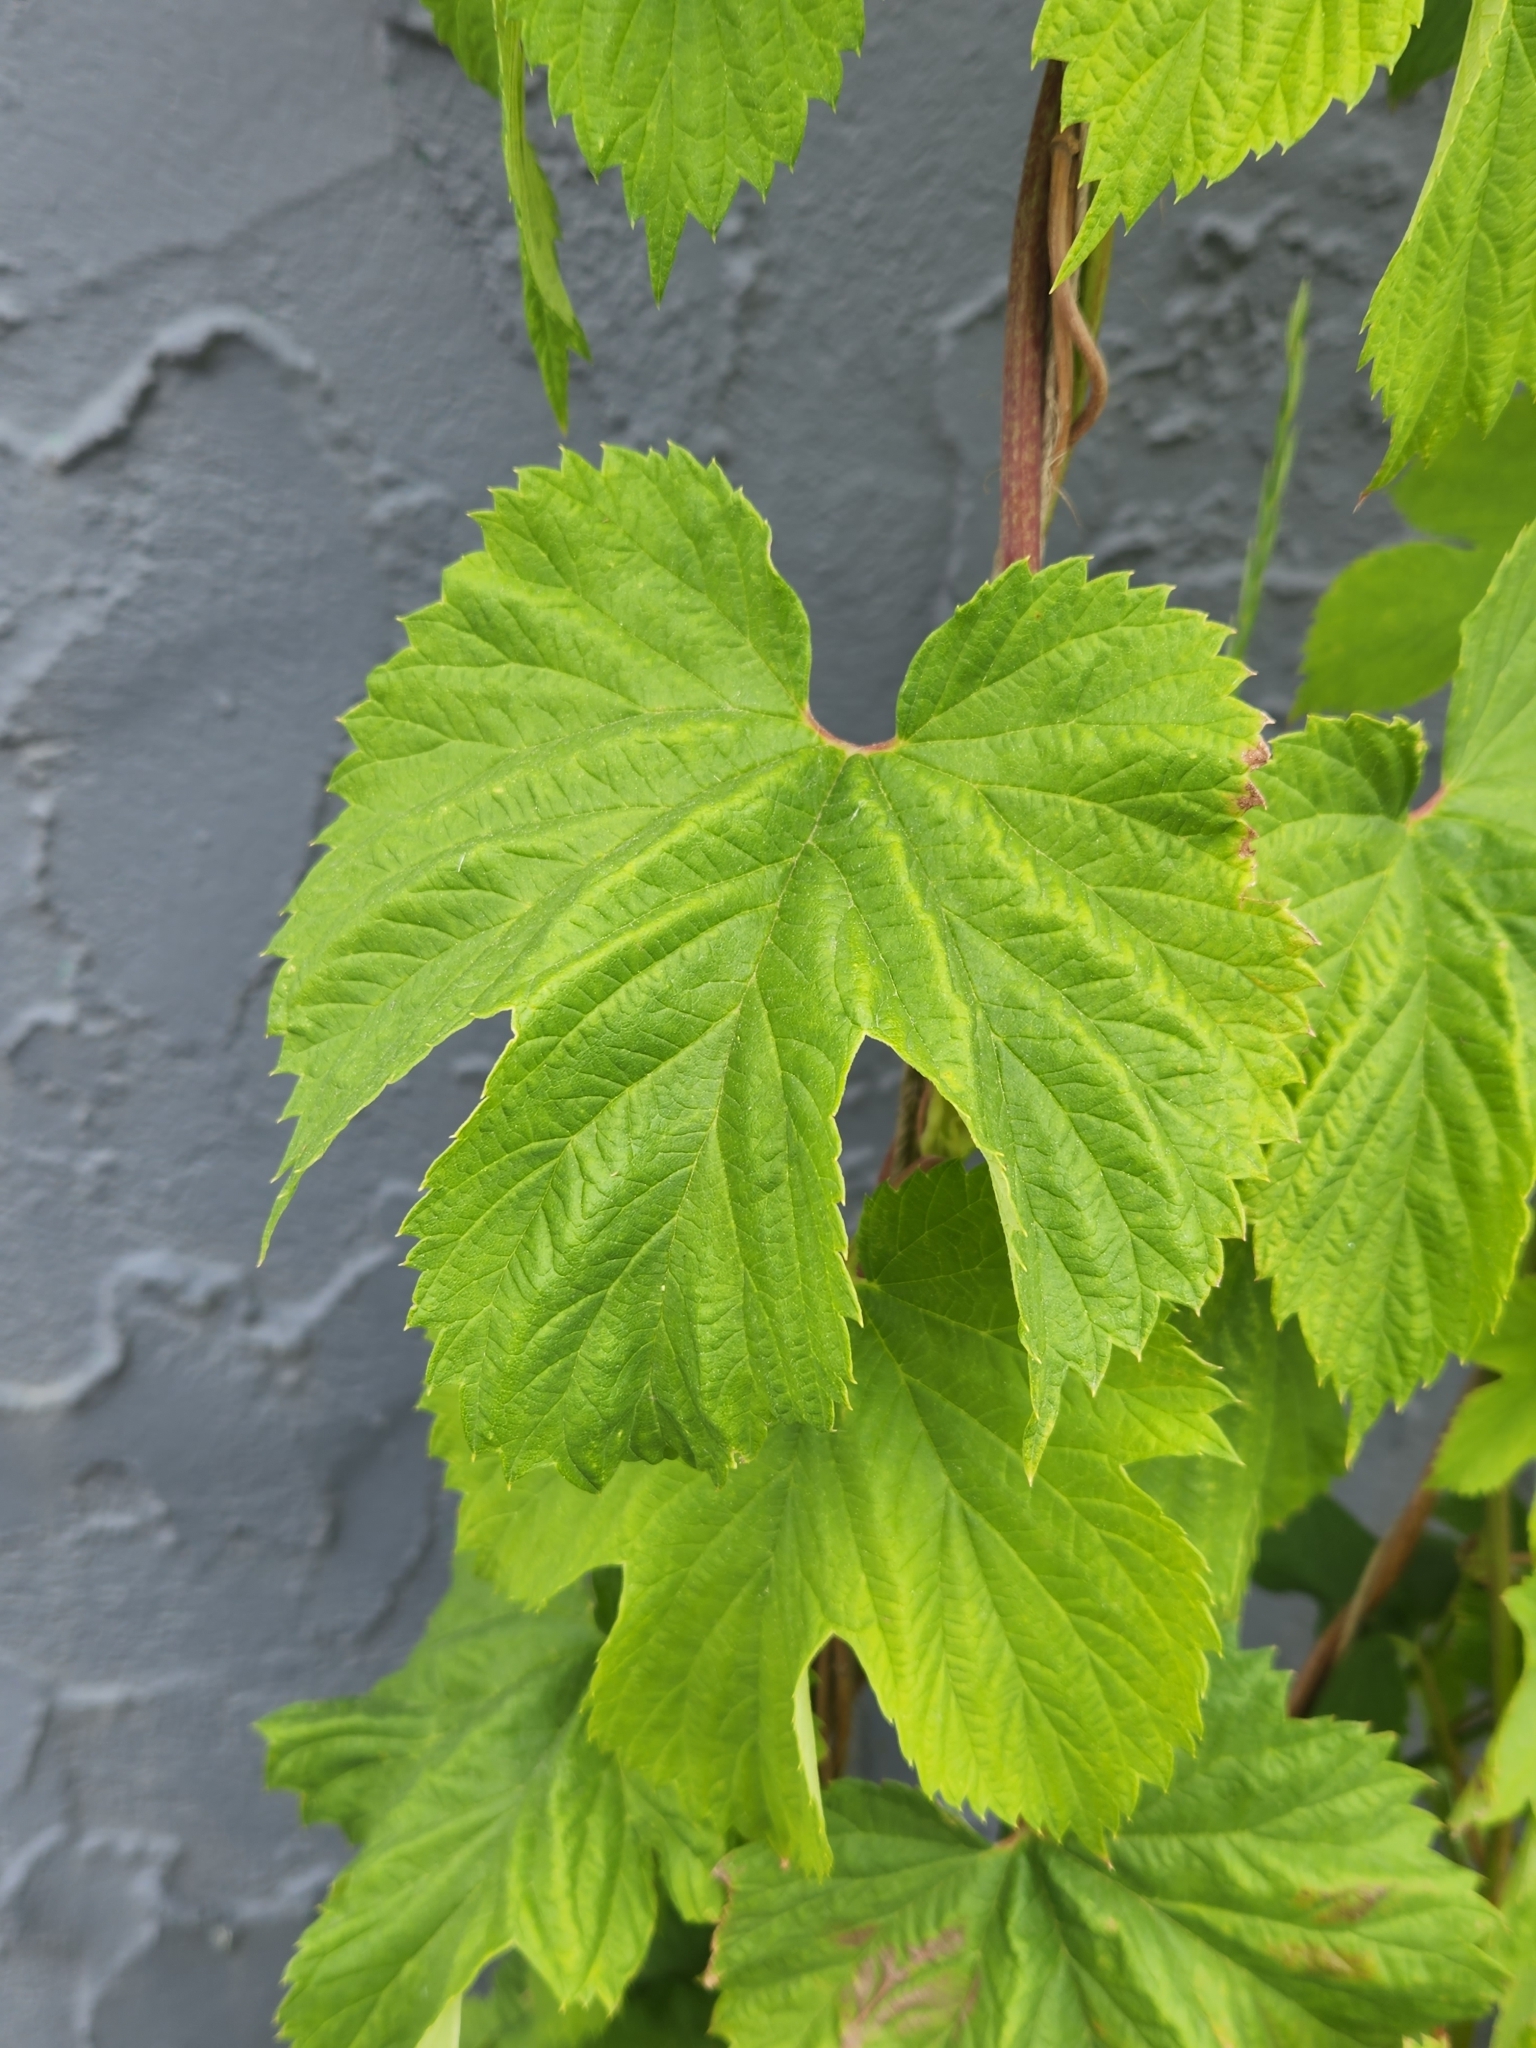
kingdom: Plantae
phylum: Tracheophyta
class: Magnoliopsida
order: Rosales
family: Cannabaceae
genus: Humulus
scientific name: Humulus lupulus
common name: Hop
